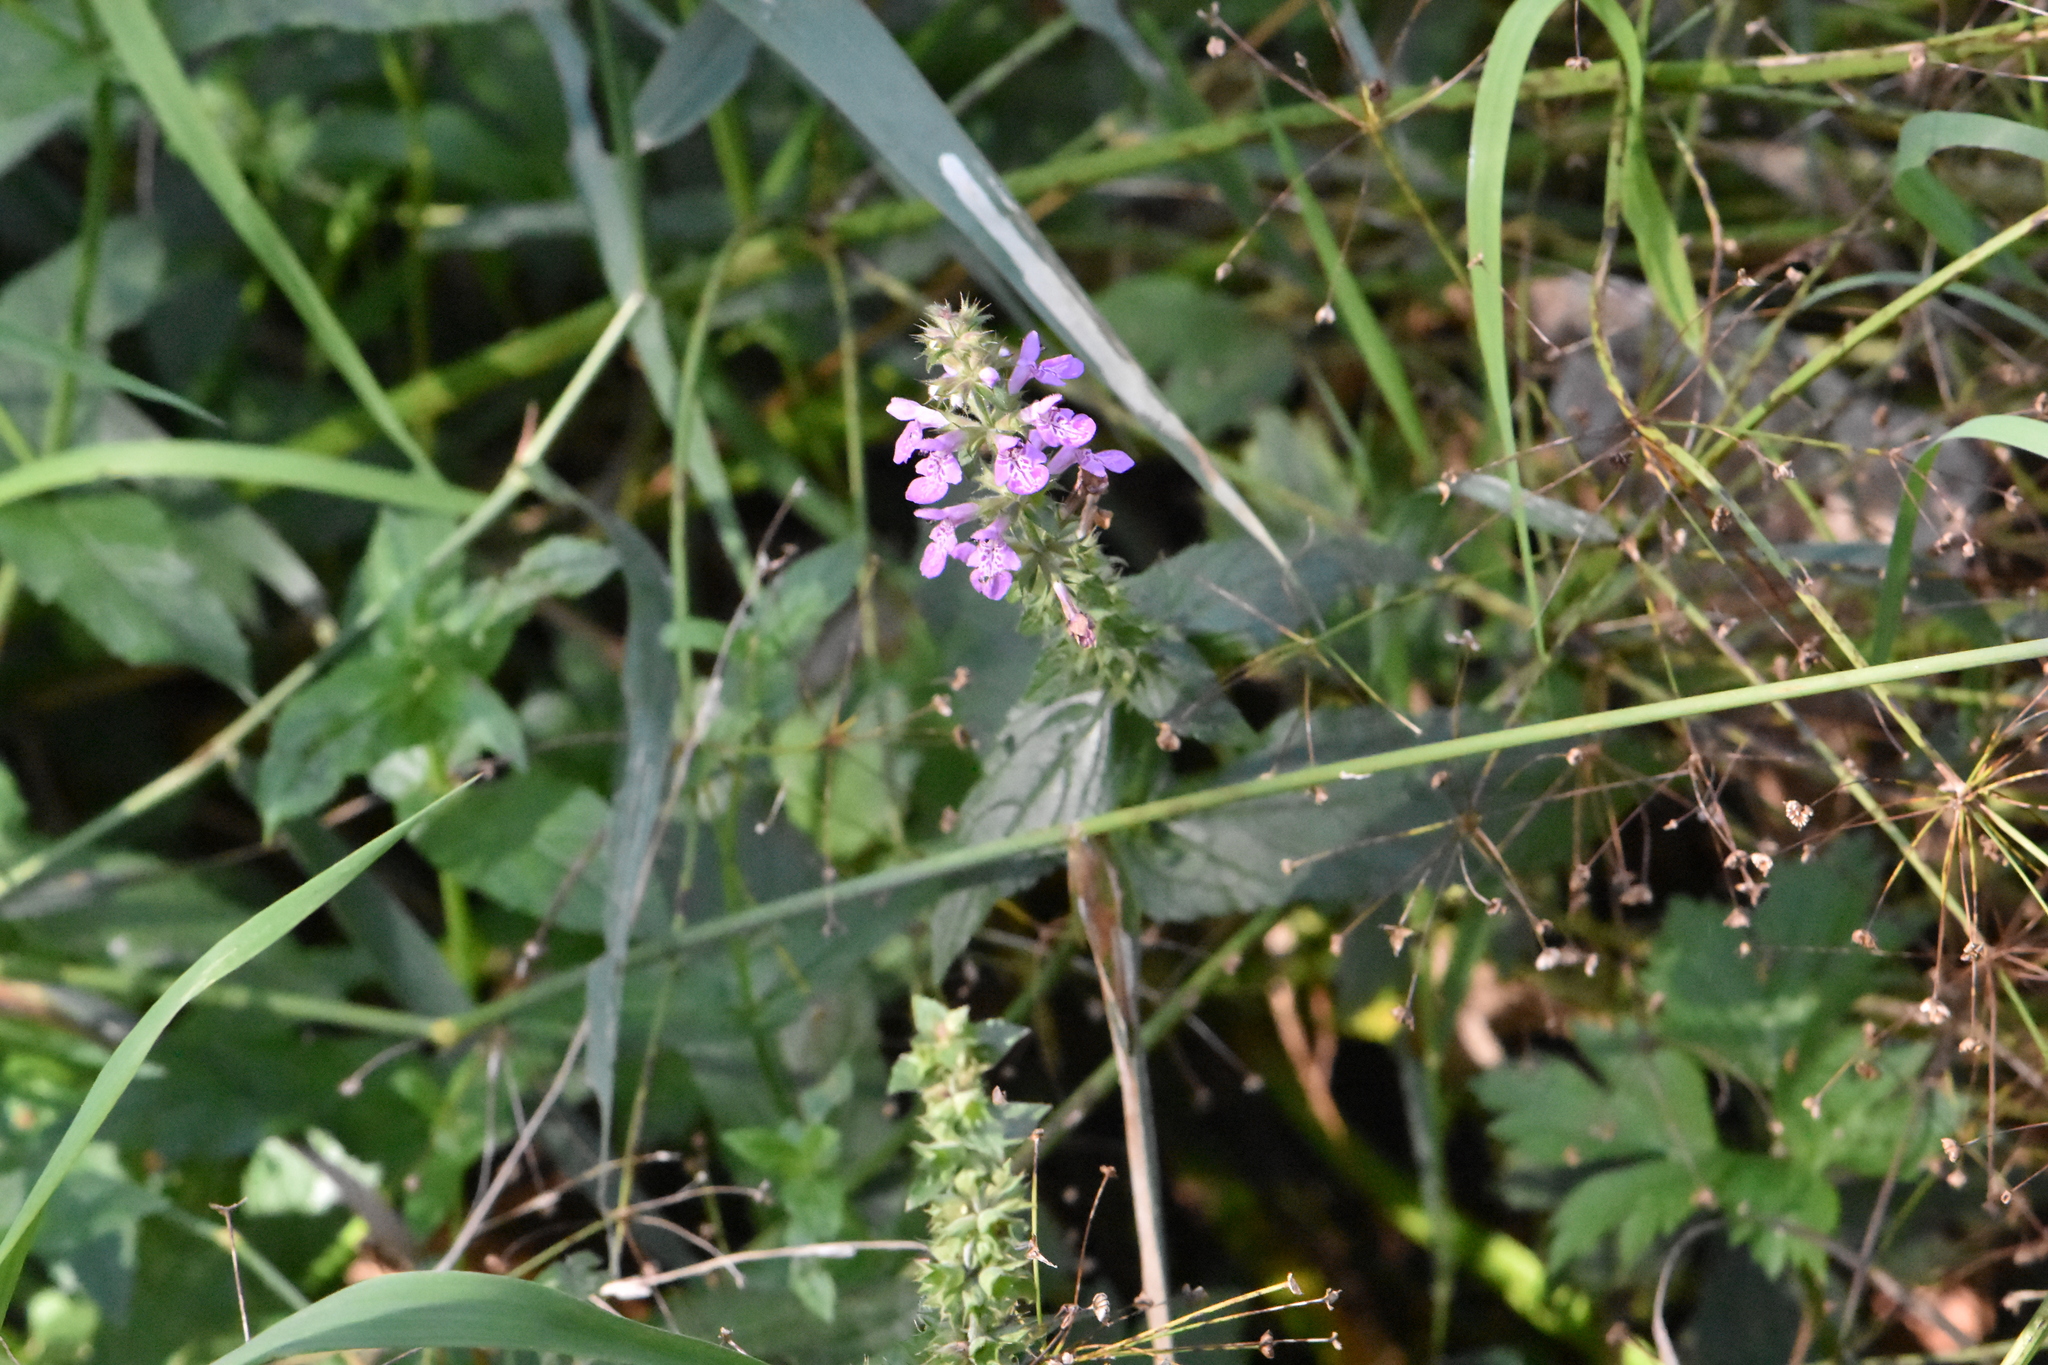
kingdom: Plantae
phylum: Tracheophyta
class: Magnoliopsida
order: Lamiales
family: Lamiaceae
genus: Stachys
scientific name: Stachys palustris
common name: Marsh woundwort
